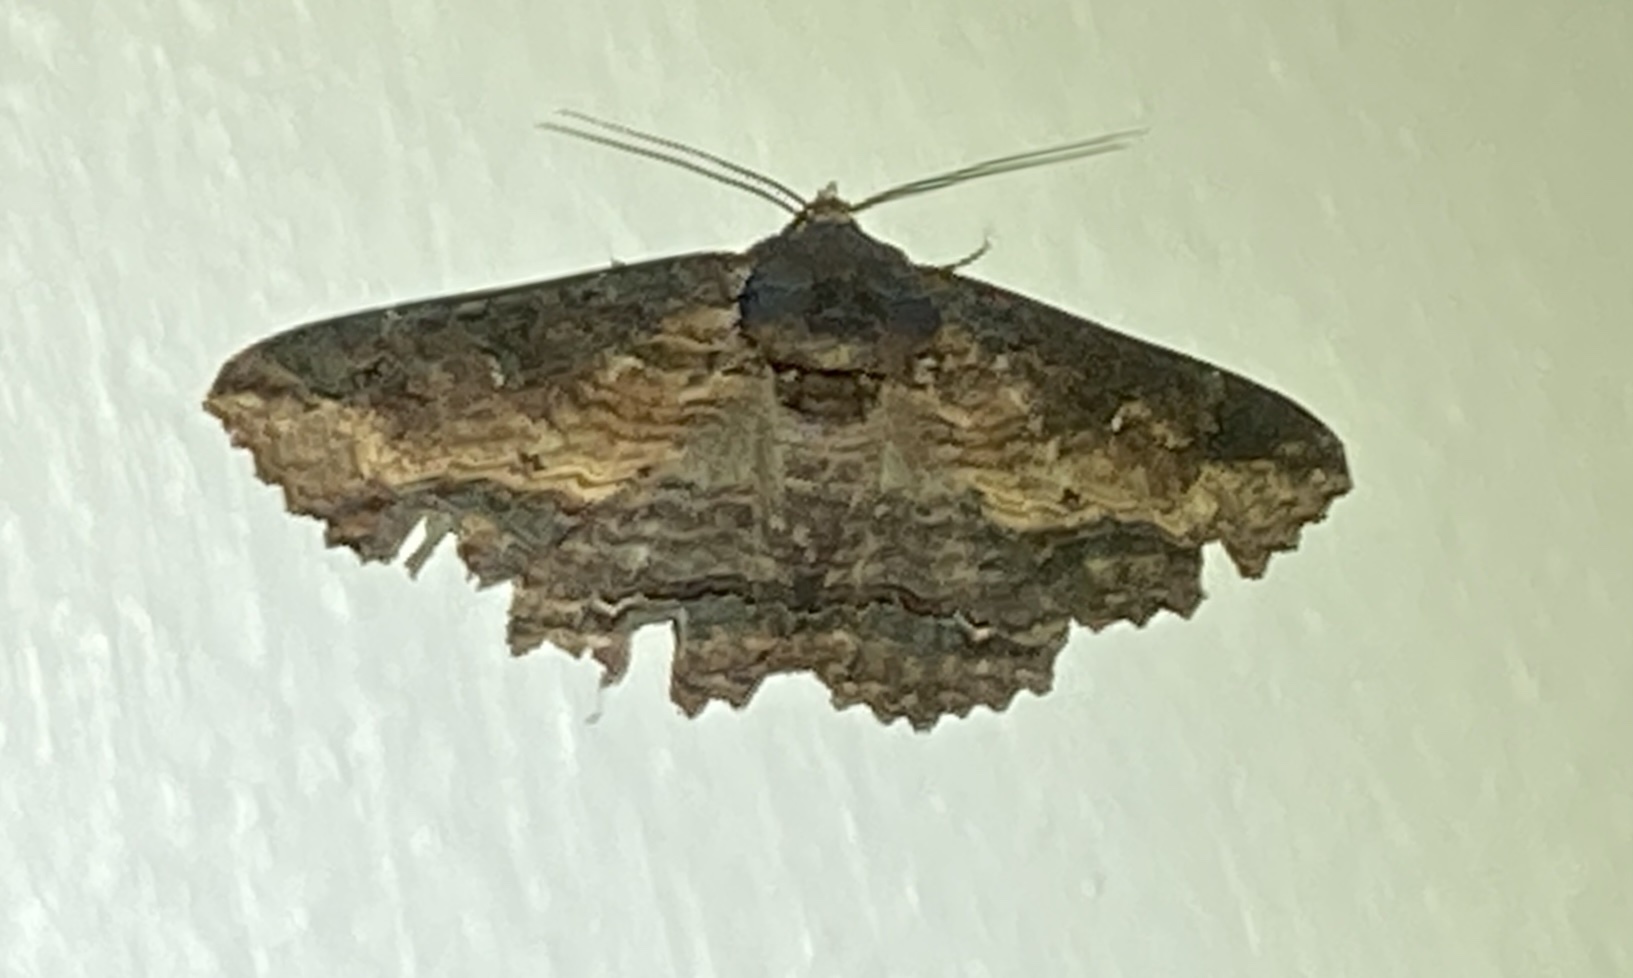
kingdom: Animalia
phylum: Arthropoda
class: Insecta
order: Lepidoptera
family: Erebidae
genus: Zale
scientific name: Zale lunata
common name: Lunate zale moth
